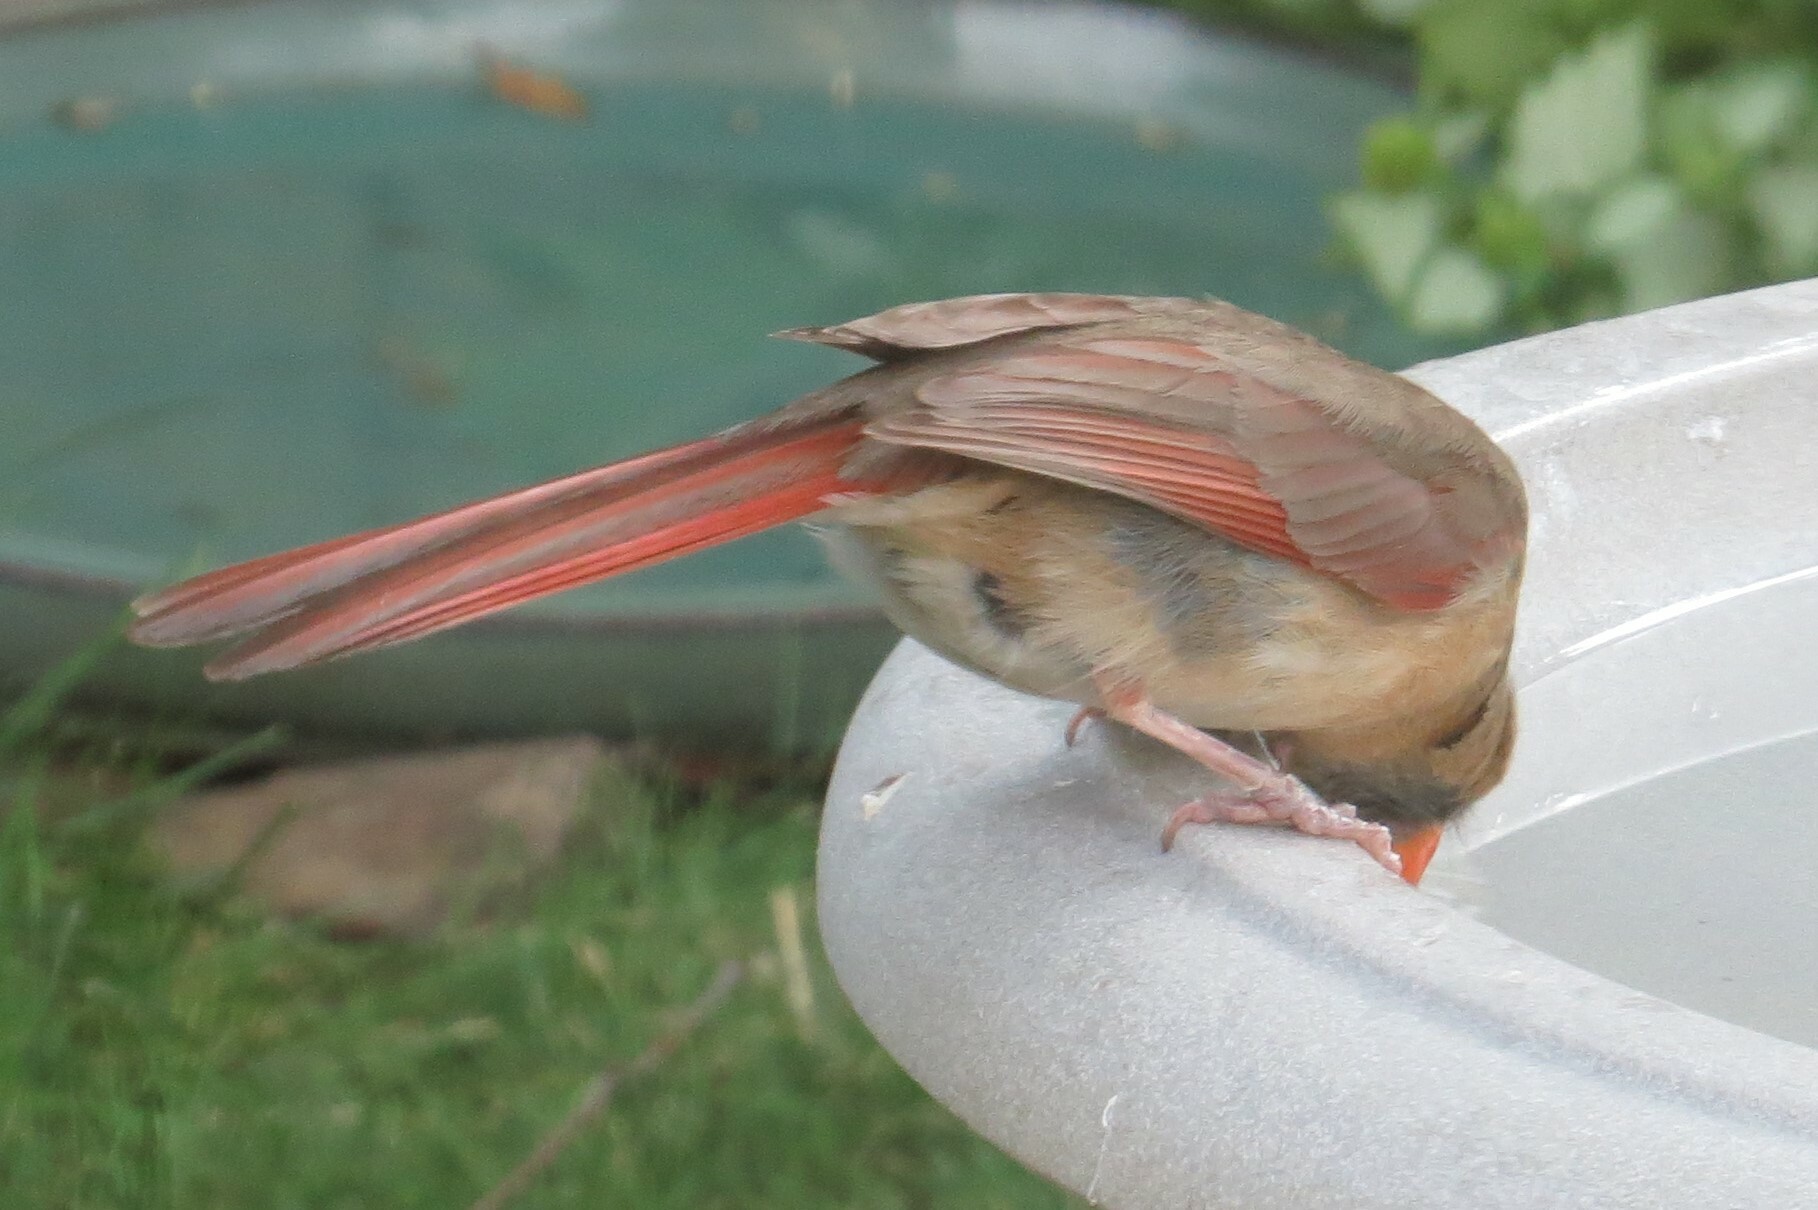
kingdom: Animalia
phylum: Chordata
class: Aves
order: Passeriformes
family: Cardinalidae
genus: Cardinalis
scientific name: Cardinalis cardinalis
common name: Northern cardinal
